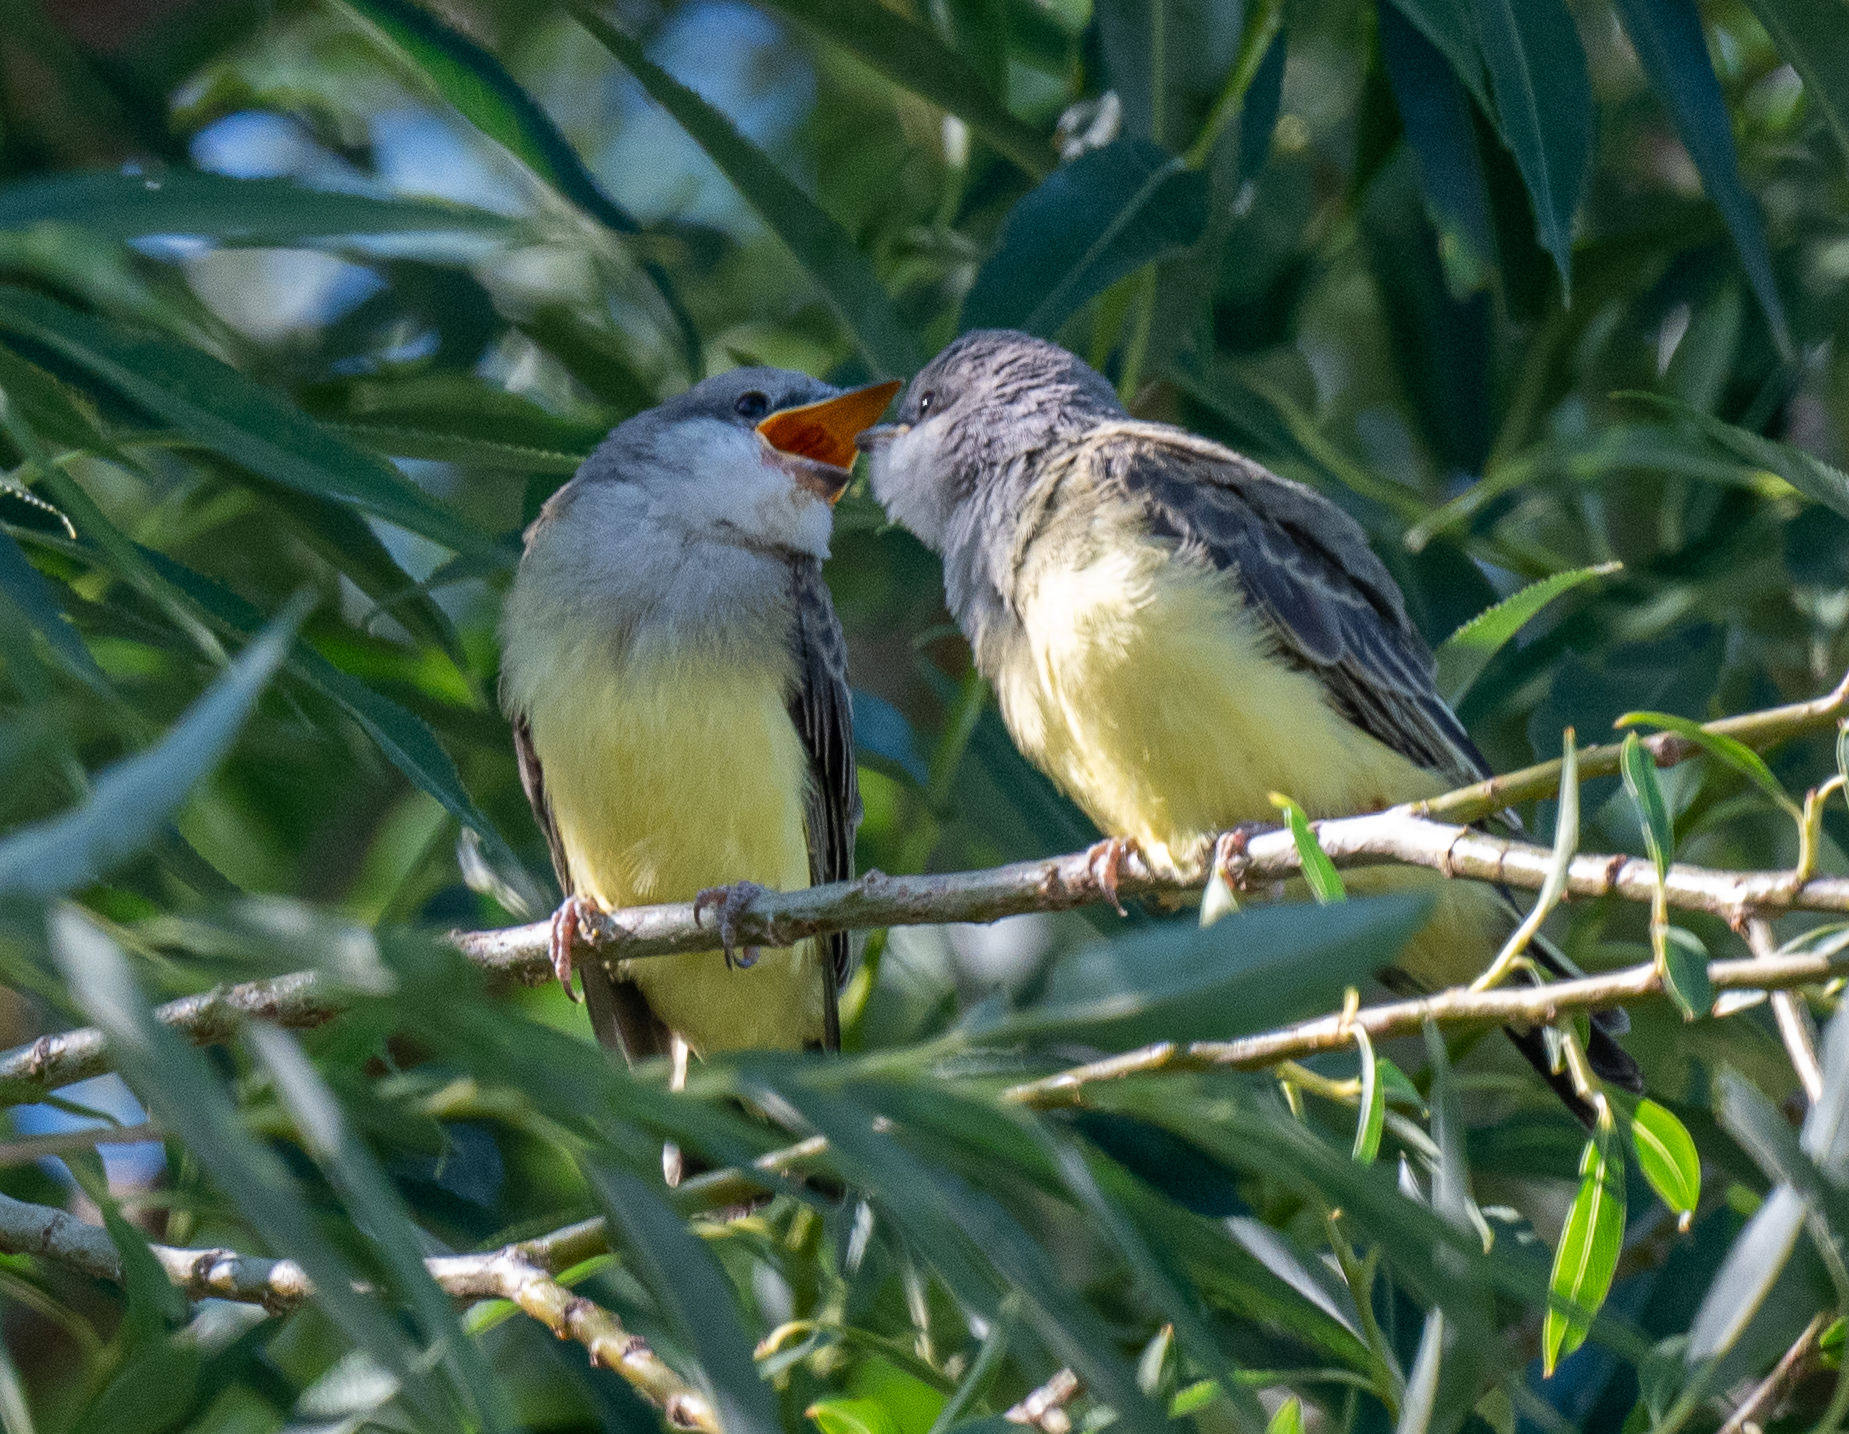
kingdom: Animalia
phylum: Chordata
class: Aves
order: Passeriformes
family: Tyrannidae
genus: Tyrannus
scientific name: Tyrannus verticalis
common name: Western kingbird
